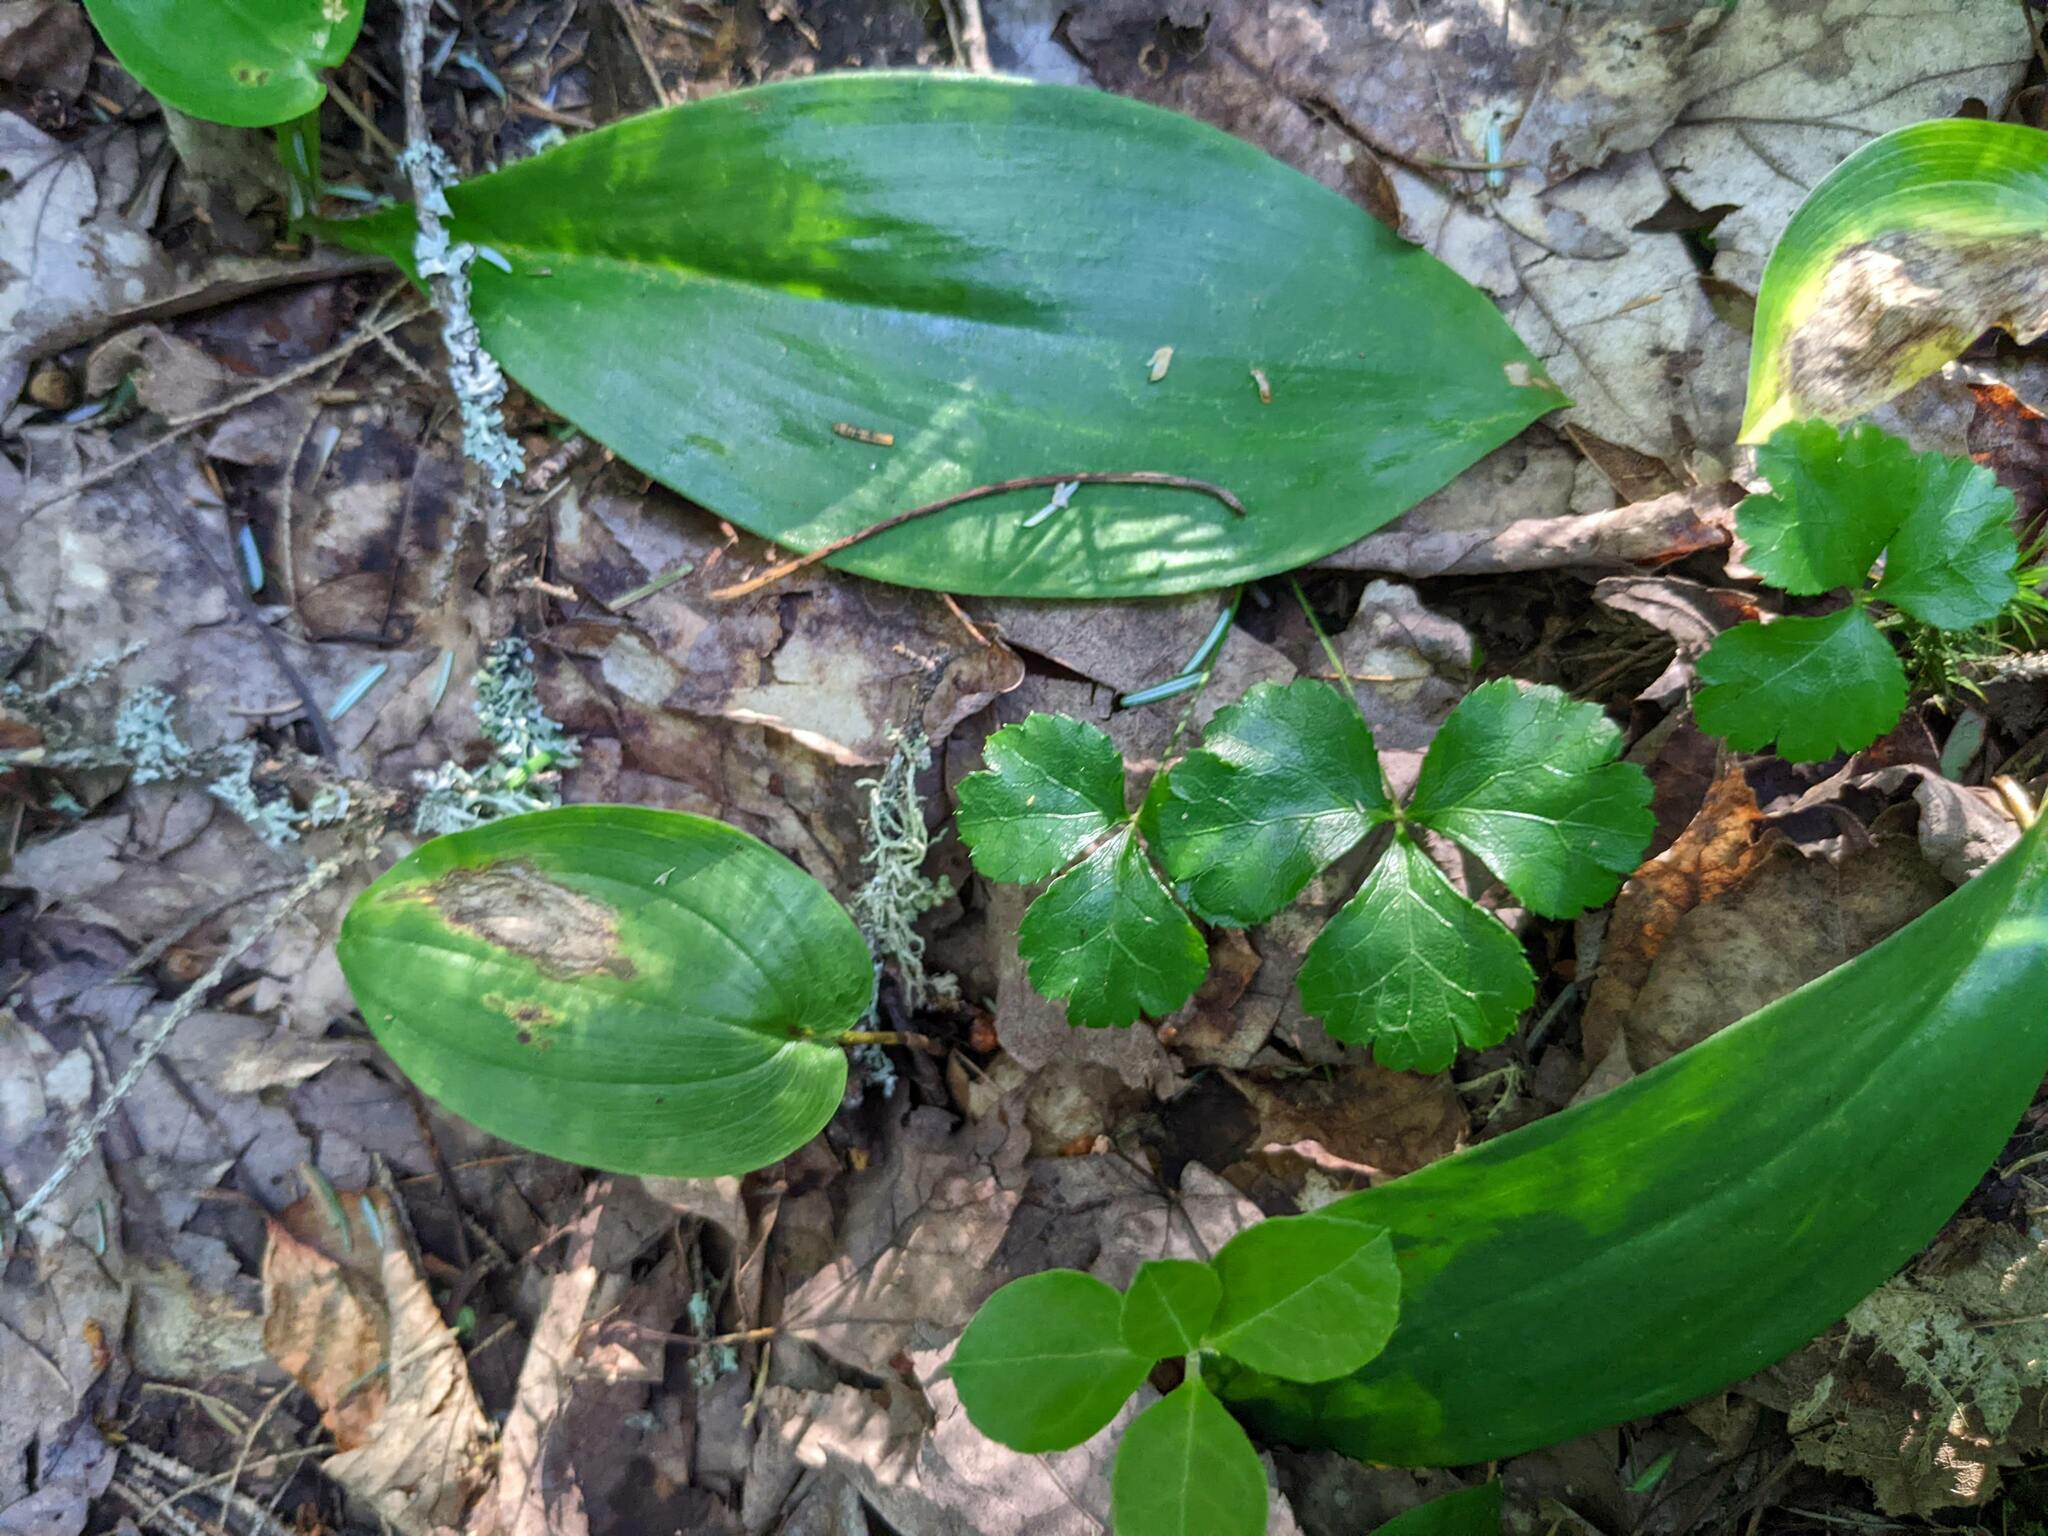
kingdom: Plantae
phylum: Tracheophyta
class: Liliopsida
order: Asparagales
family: Asparagaceae
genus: Maianthemum
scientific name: Maianthemum canadense
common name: False lily-of-the-valley
